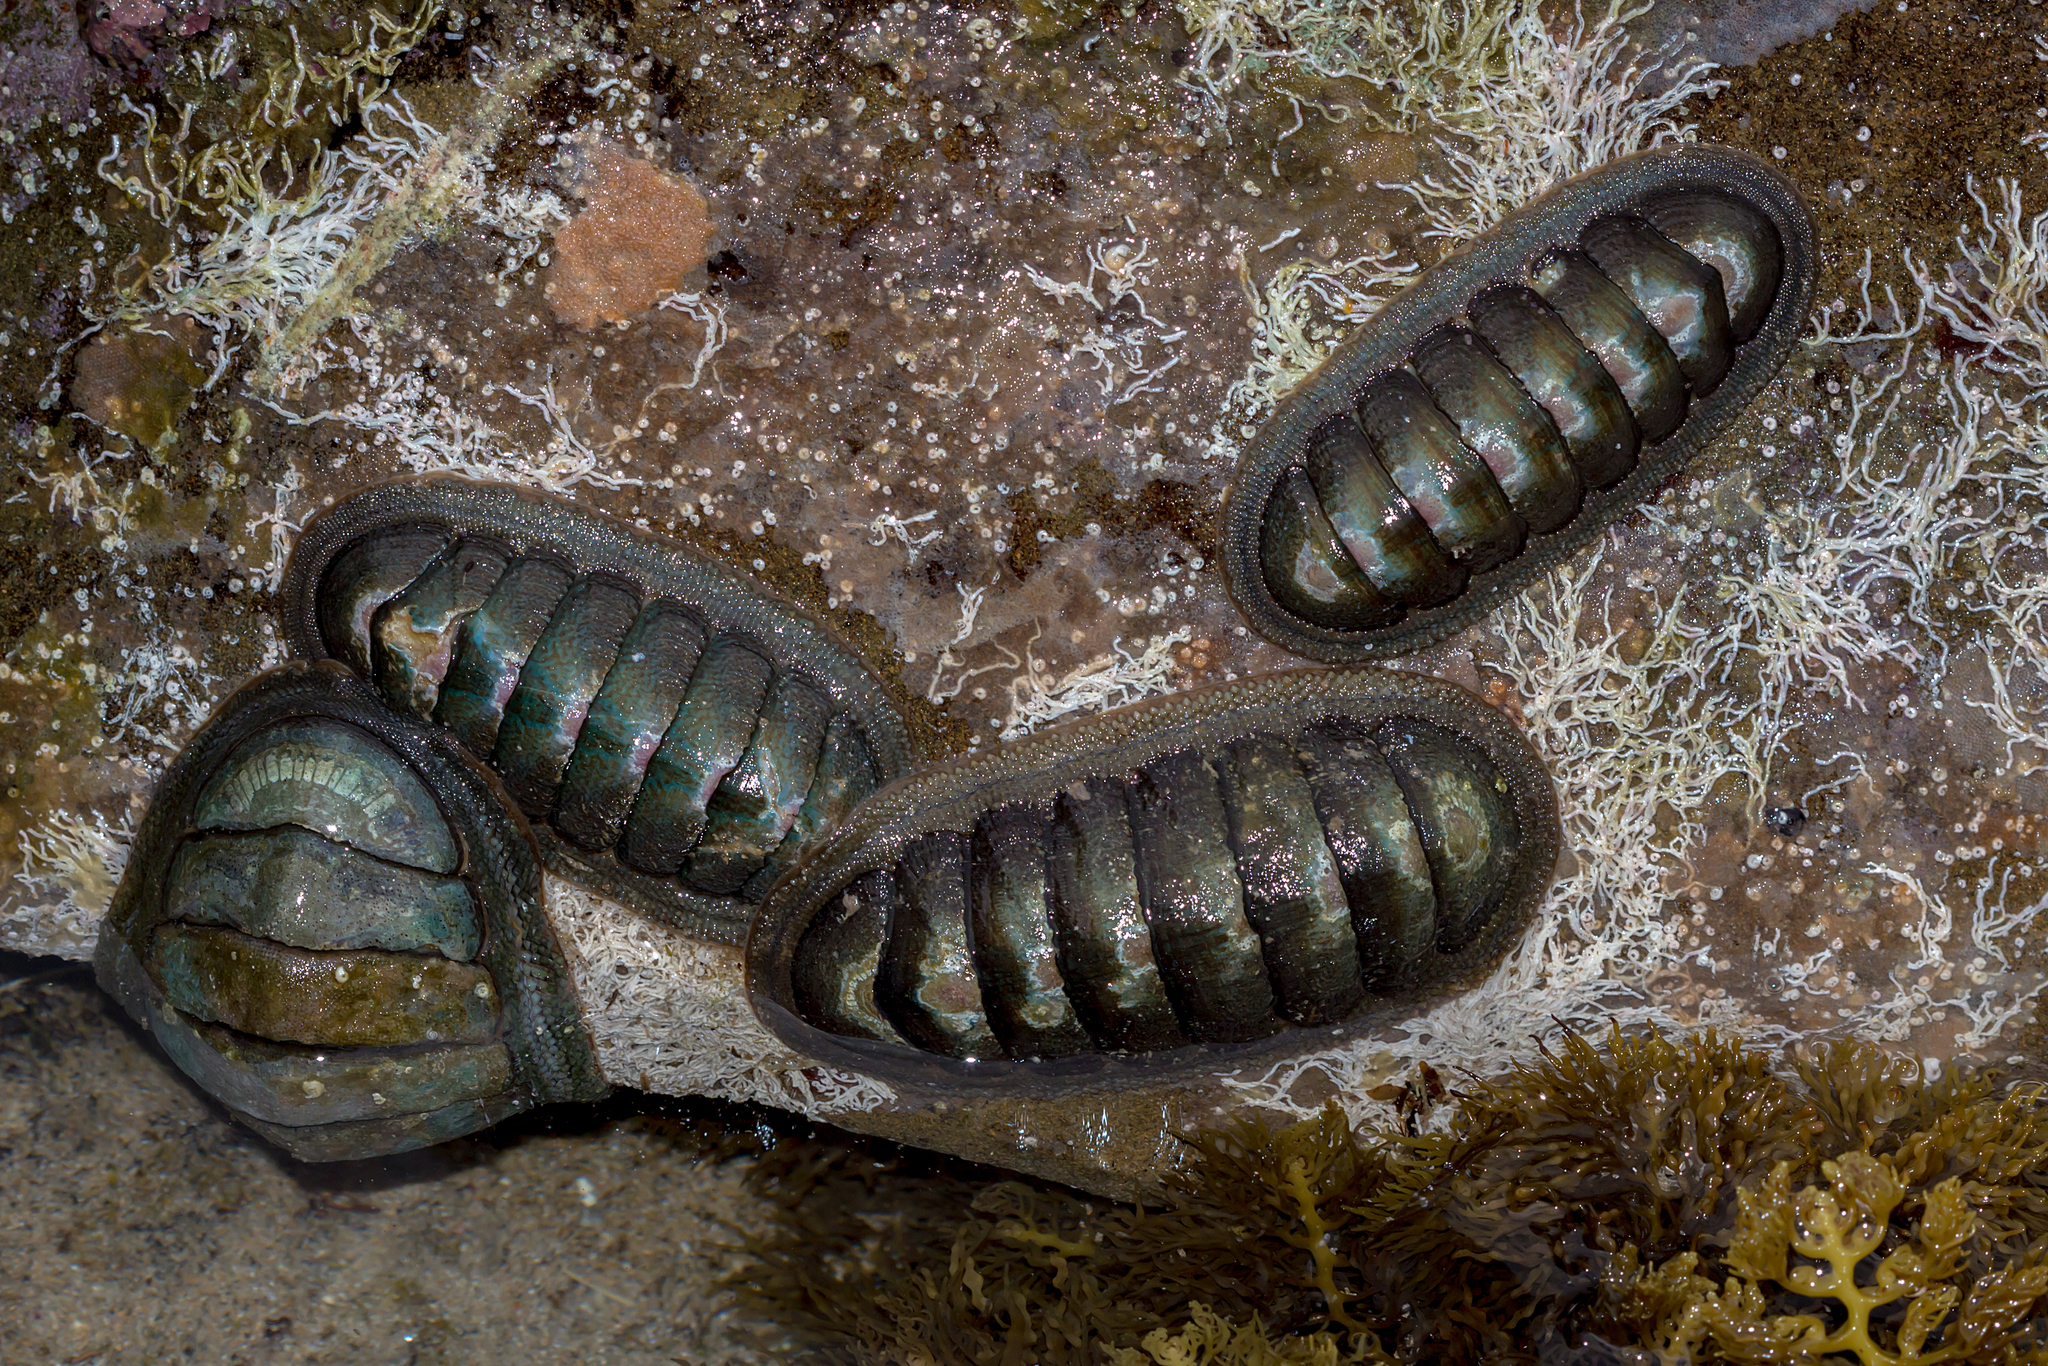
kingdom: Animalia
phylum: Mollusca
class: Polyplacophora
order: Chitonida
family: Ischnochitonidae
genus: Ischnochiton
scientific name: Ischnochiton australis
